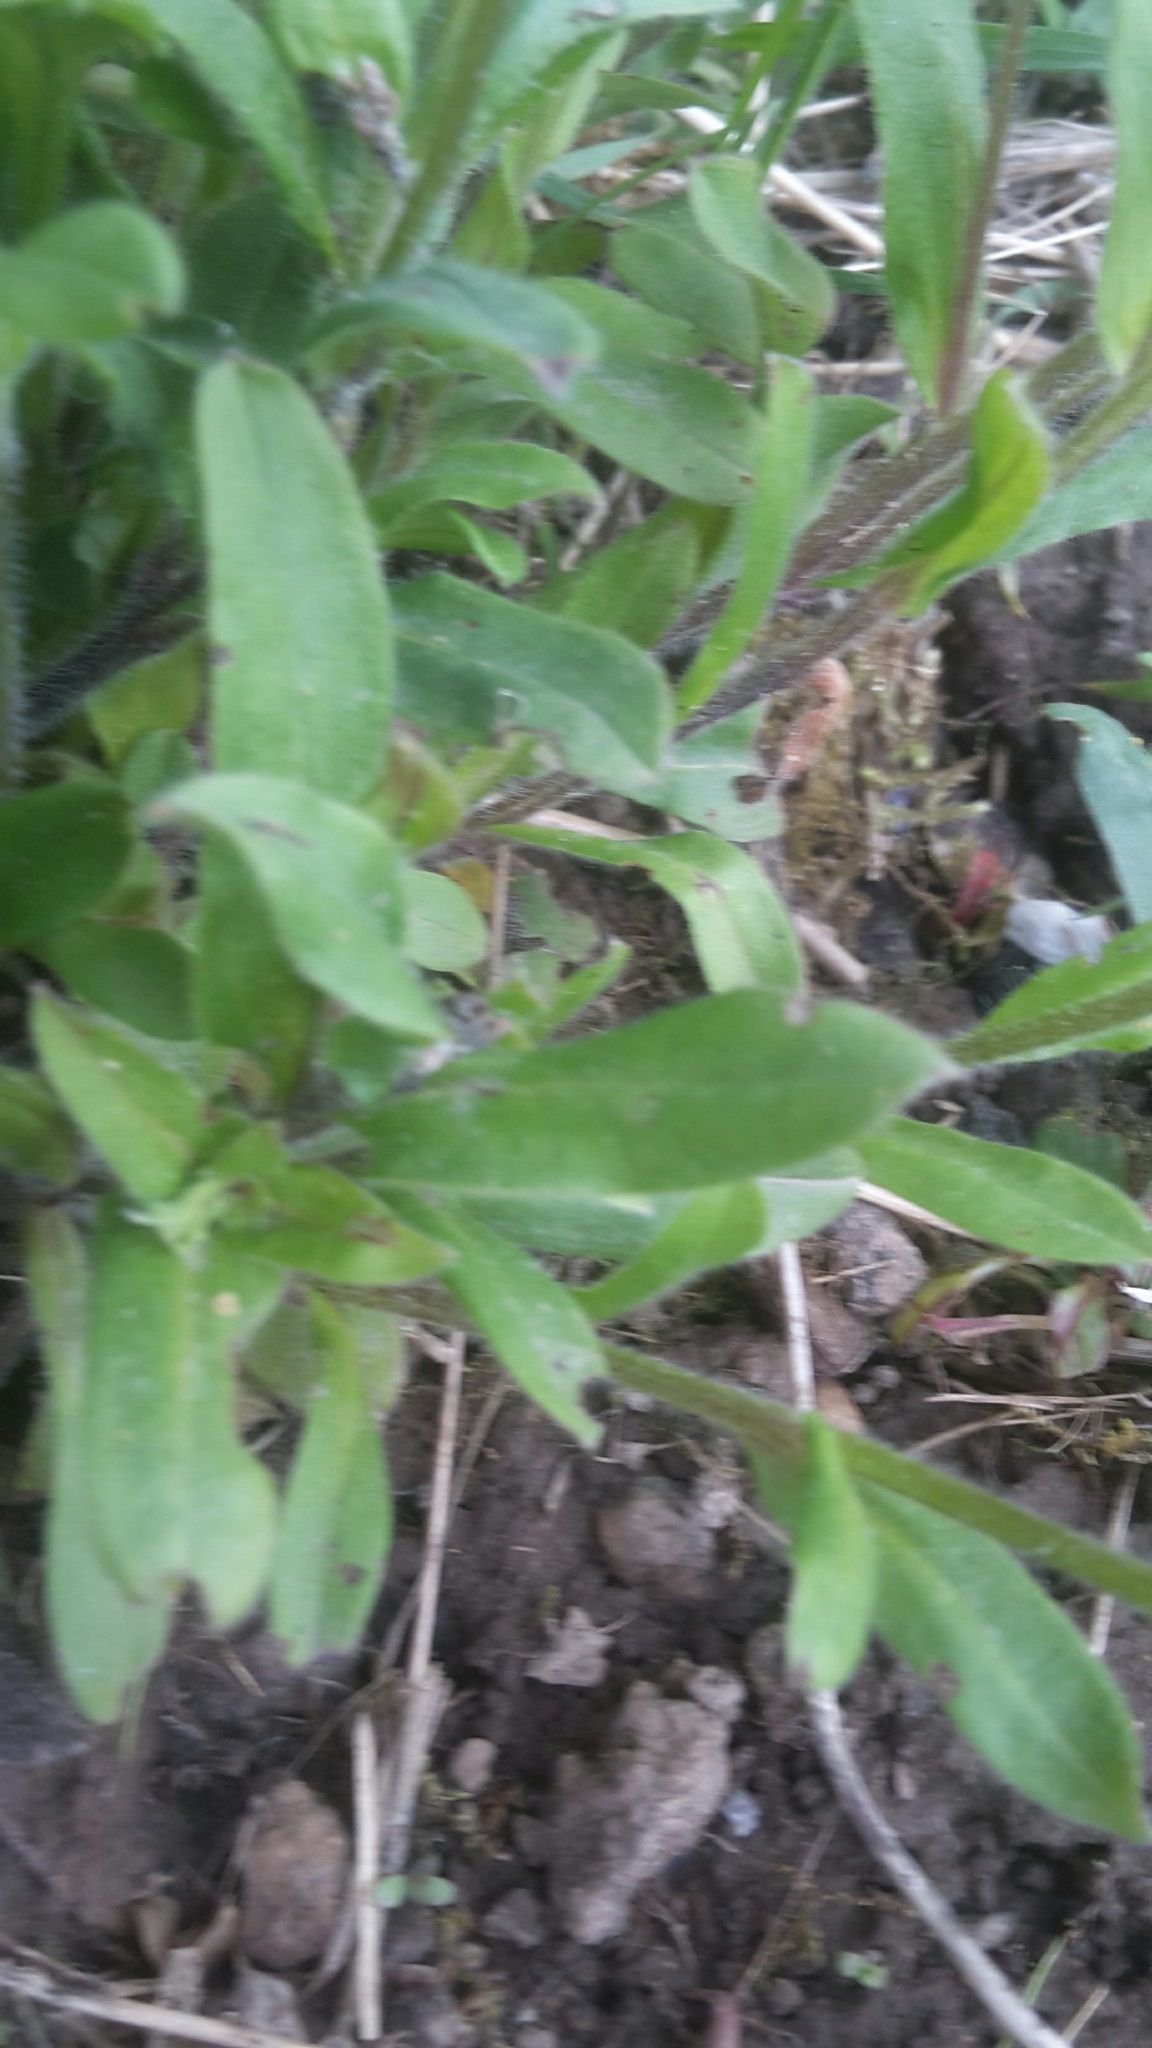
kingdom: Plantae
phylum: Tracheophyta
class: Magnoliopsida
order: Boraginales
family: Boraginaceae
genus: Myosotis
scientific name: Myosotis sylvatica
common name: Wood forget-me-not
